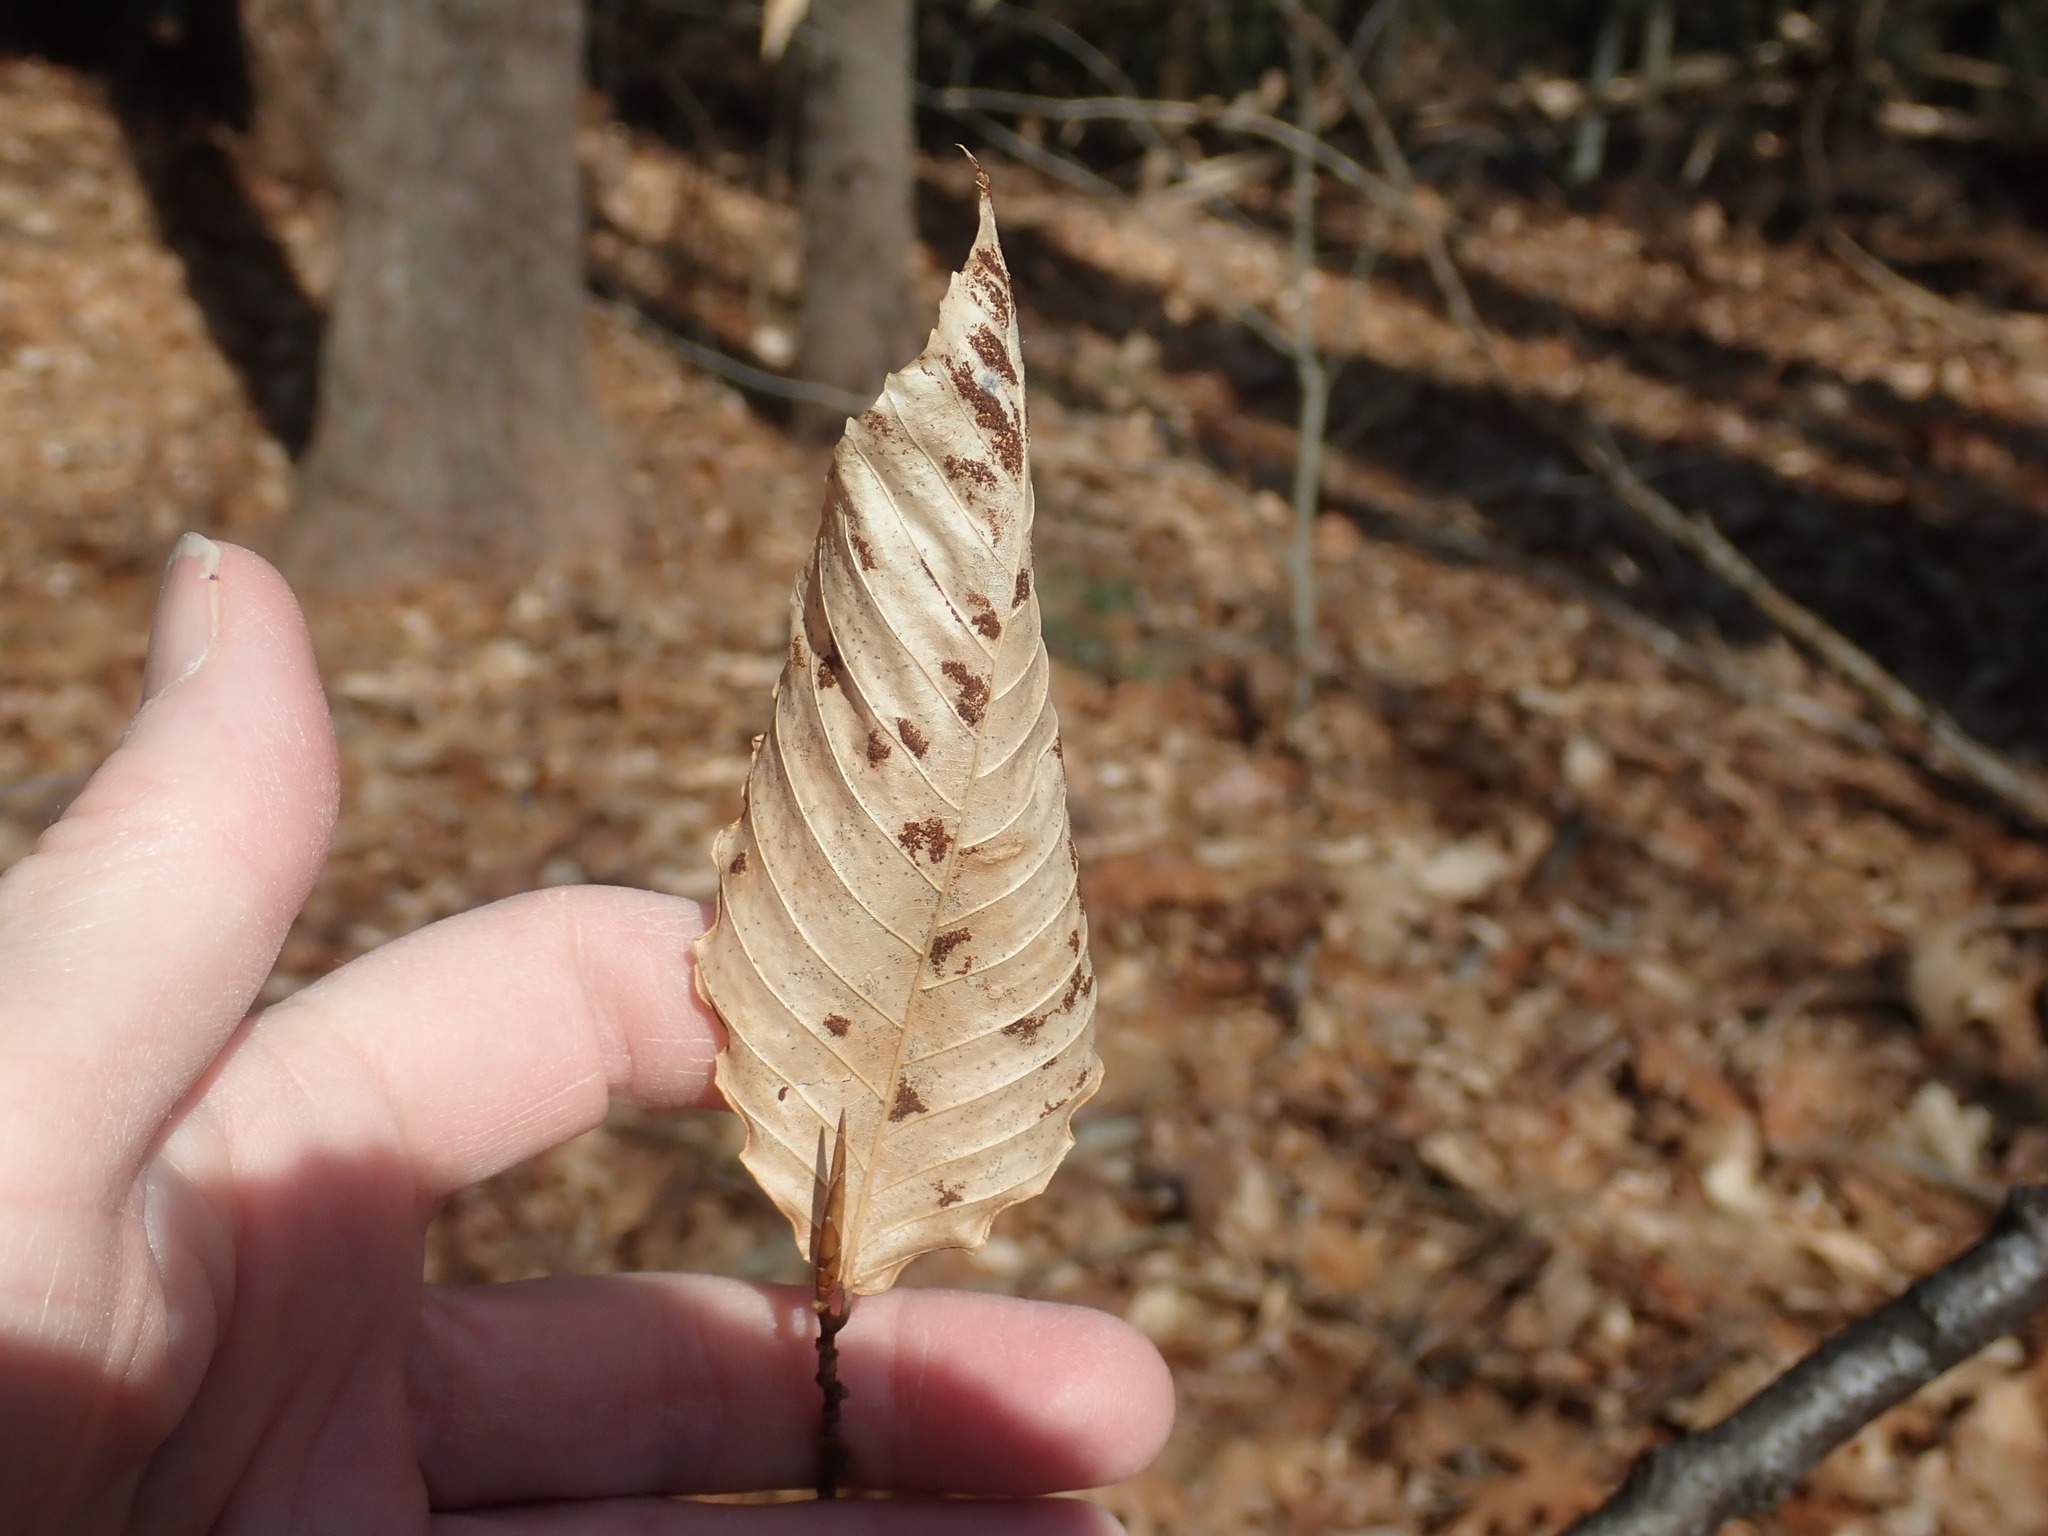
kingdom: Animalia
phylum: Arthropoda
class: Arachnida
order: Trombidiformes
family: Eriophyidae
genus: Acalitus
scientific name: Acalitus
